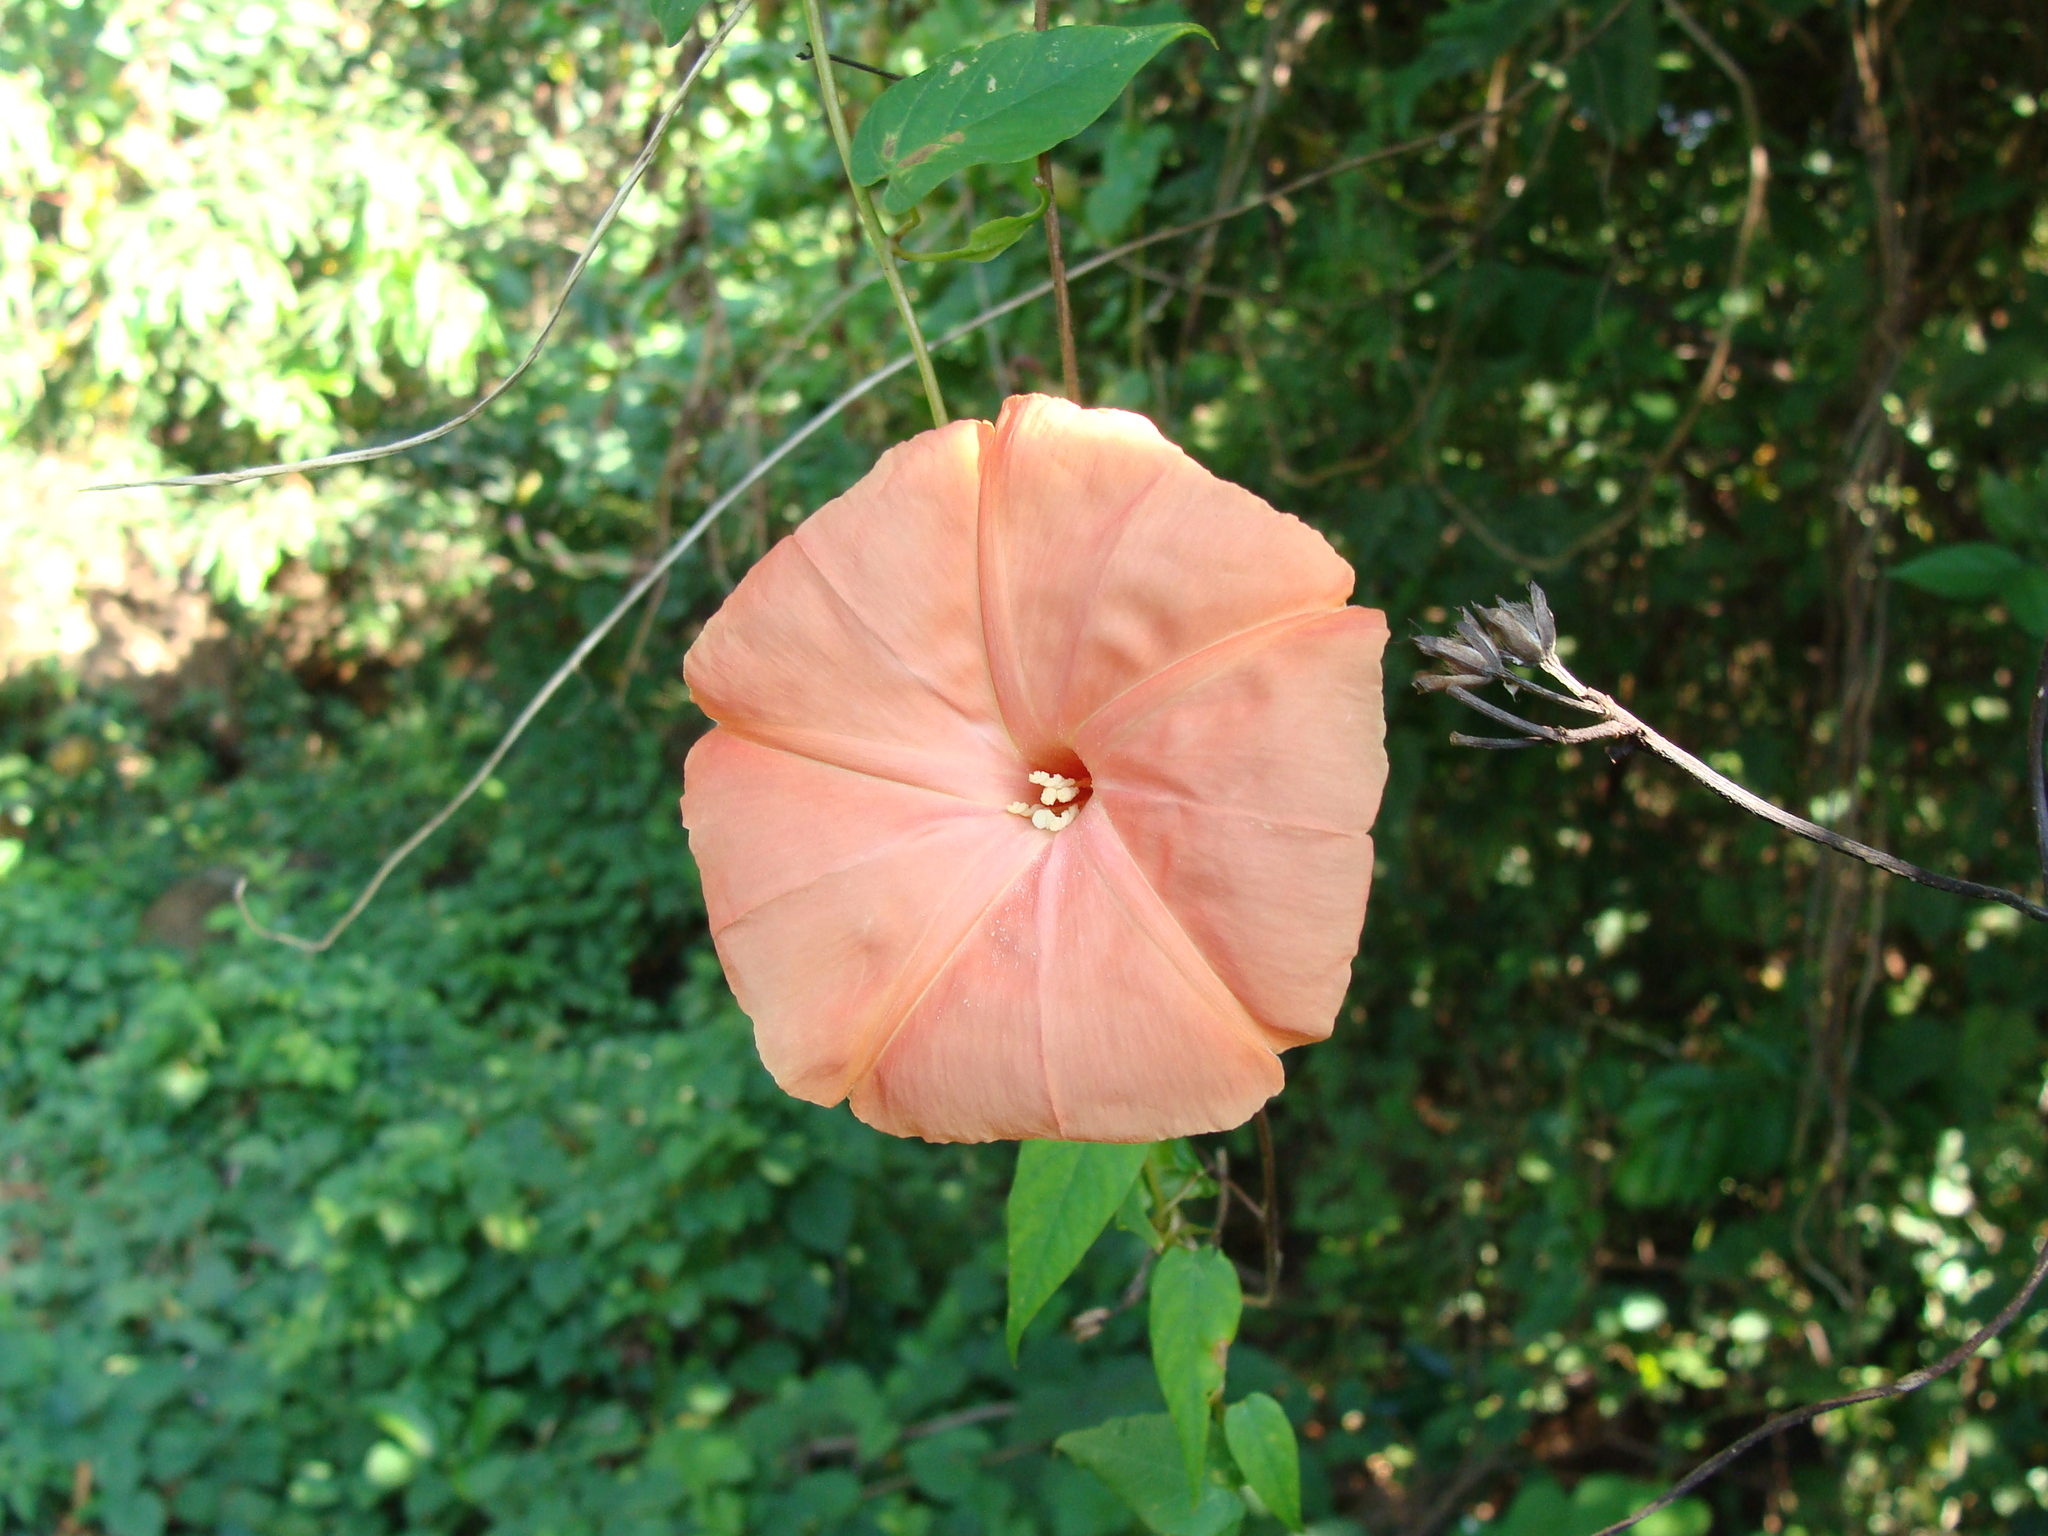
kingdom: Plantae
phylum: Tracheophyta
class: Magnoliopsida
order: Solanales
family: Convolvulaceae
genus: Operculina
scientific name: Operculina pteripes
